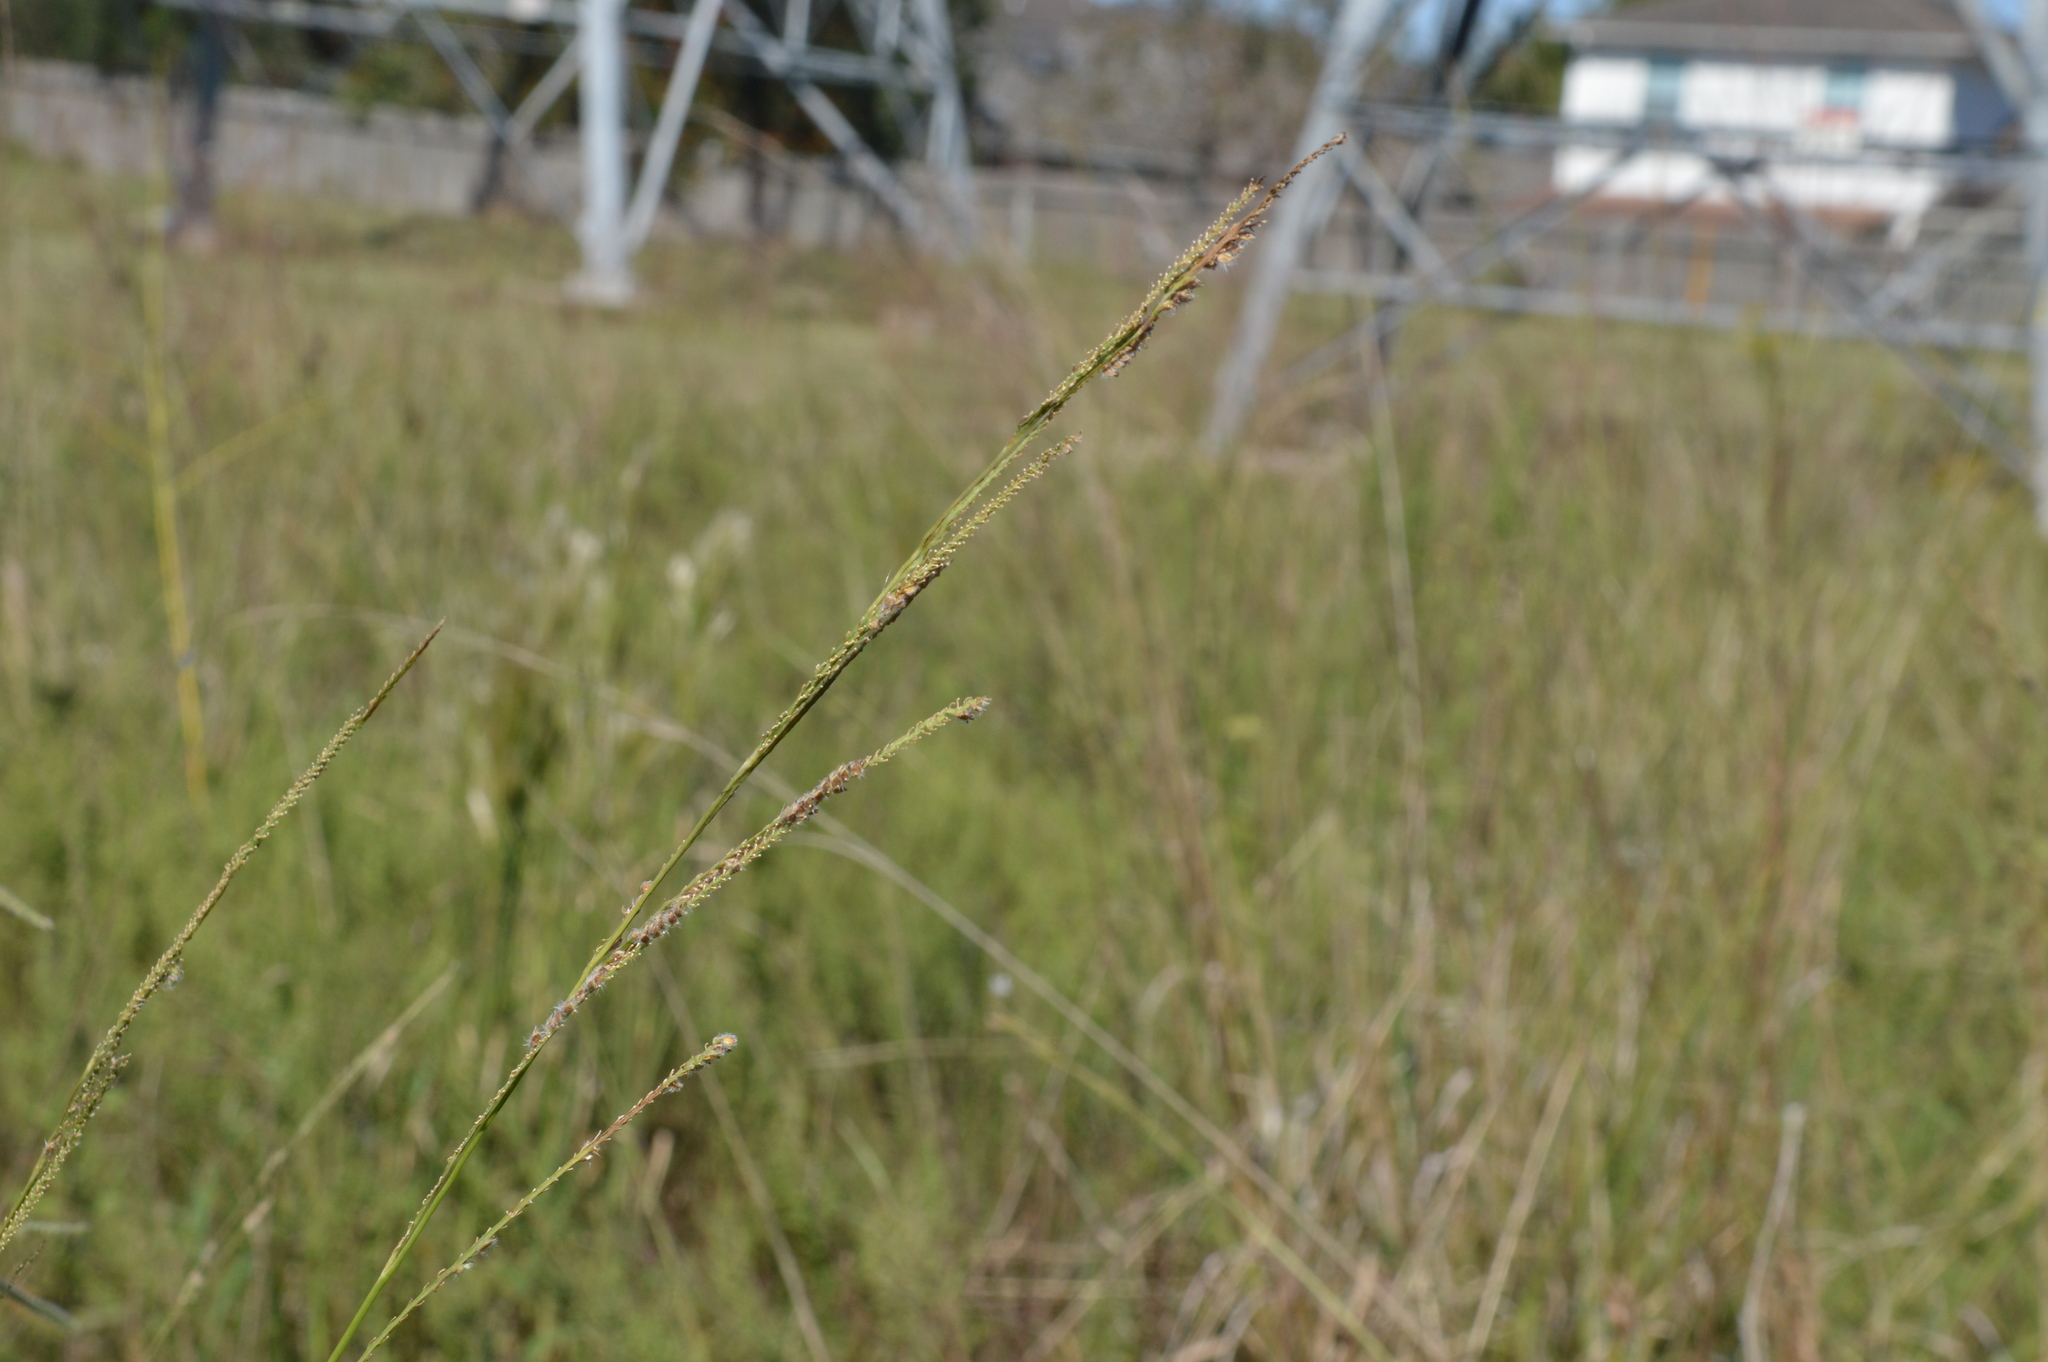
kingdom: Plantae
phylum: Tracheophyta
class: Liliopsida
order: Poales
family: Poaceae
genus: Paspalum
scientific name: Paspalum urvillei
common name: Vasey's grass
